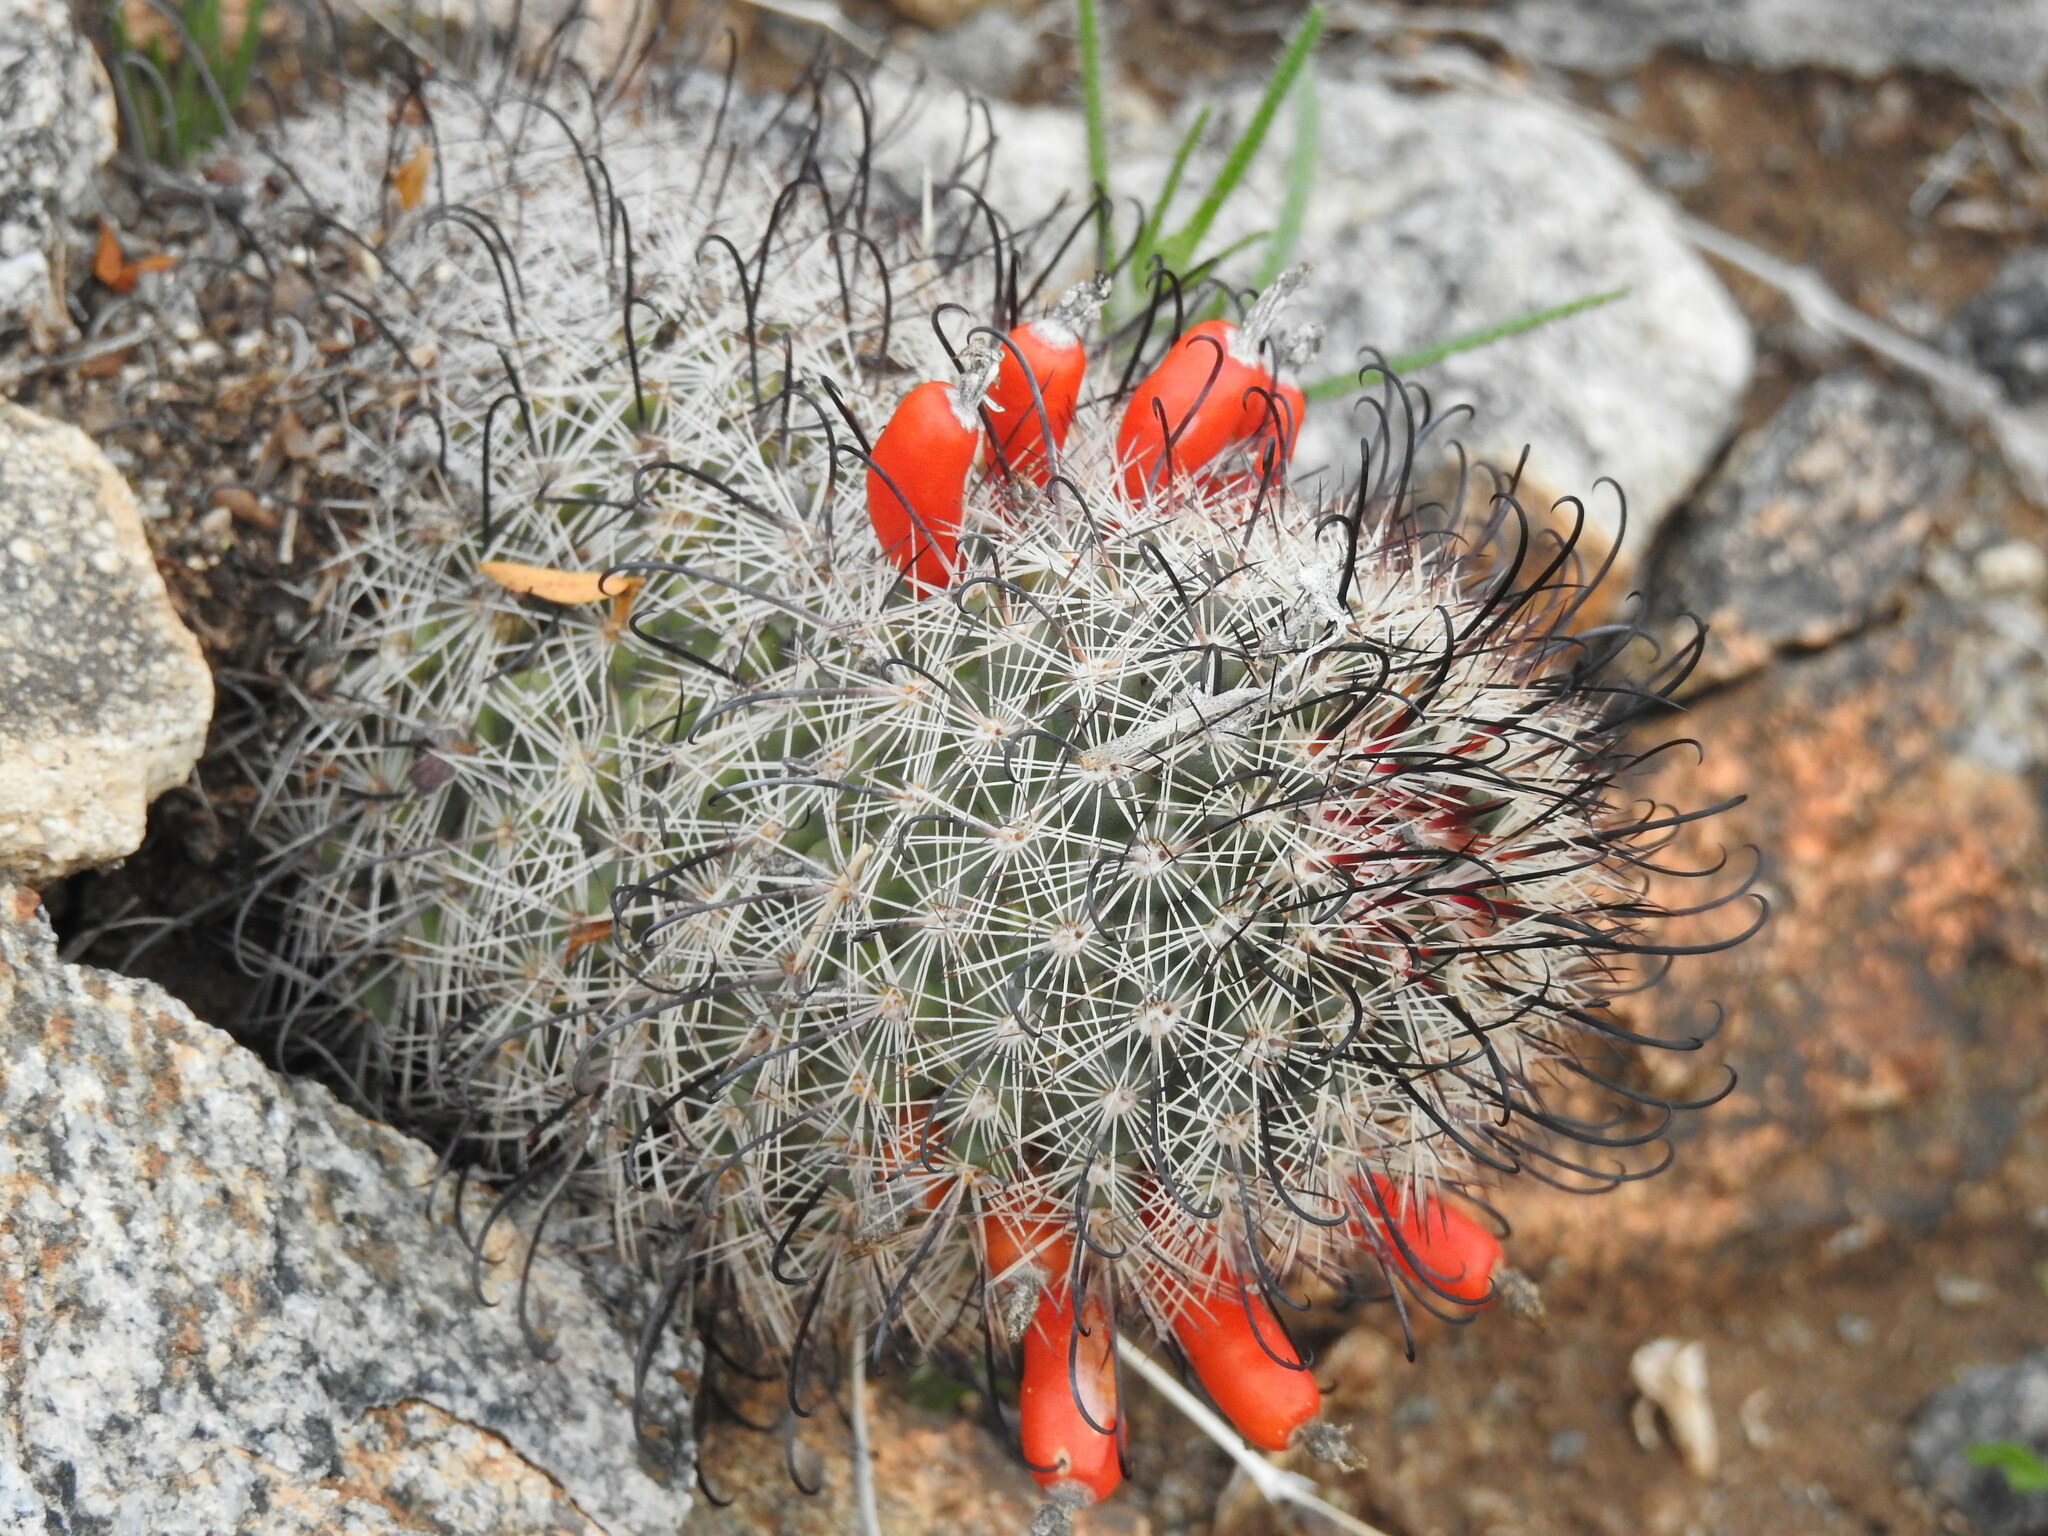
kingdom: Plantae
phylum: Tracheophyta
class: Magnoliopsida
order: Caryophyllales
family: Cactaceae
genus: Cochemiea
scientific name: Cochemiea grahamii
